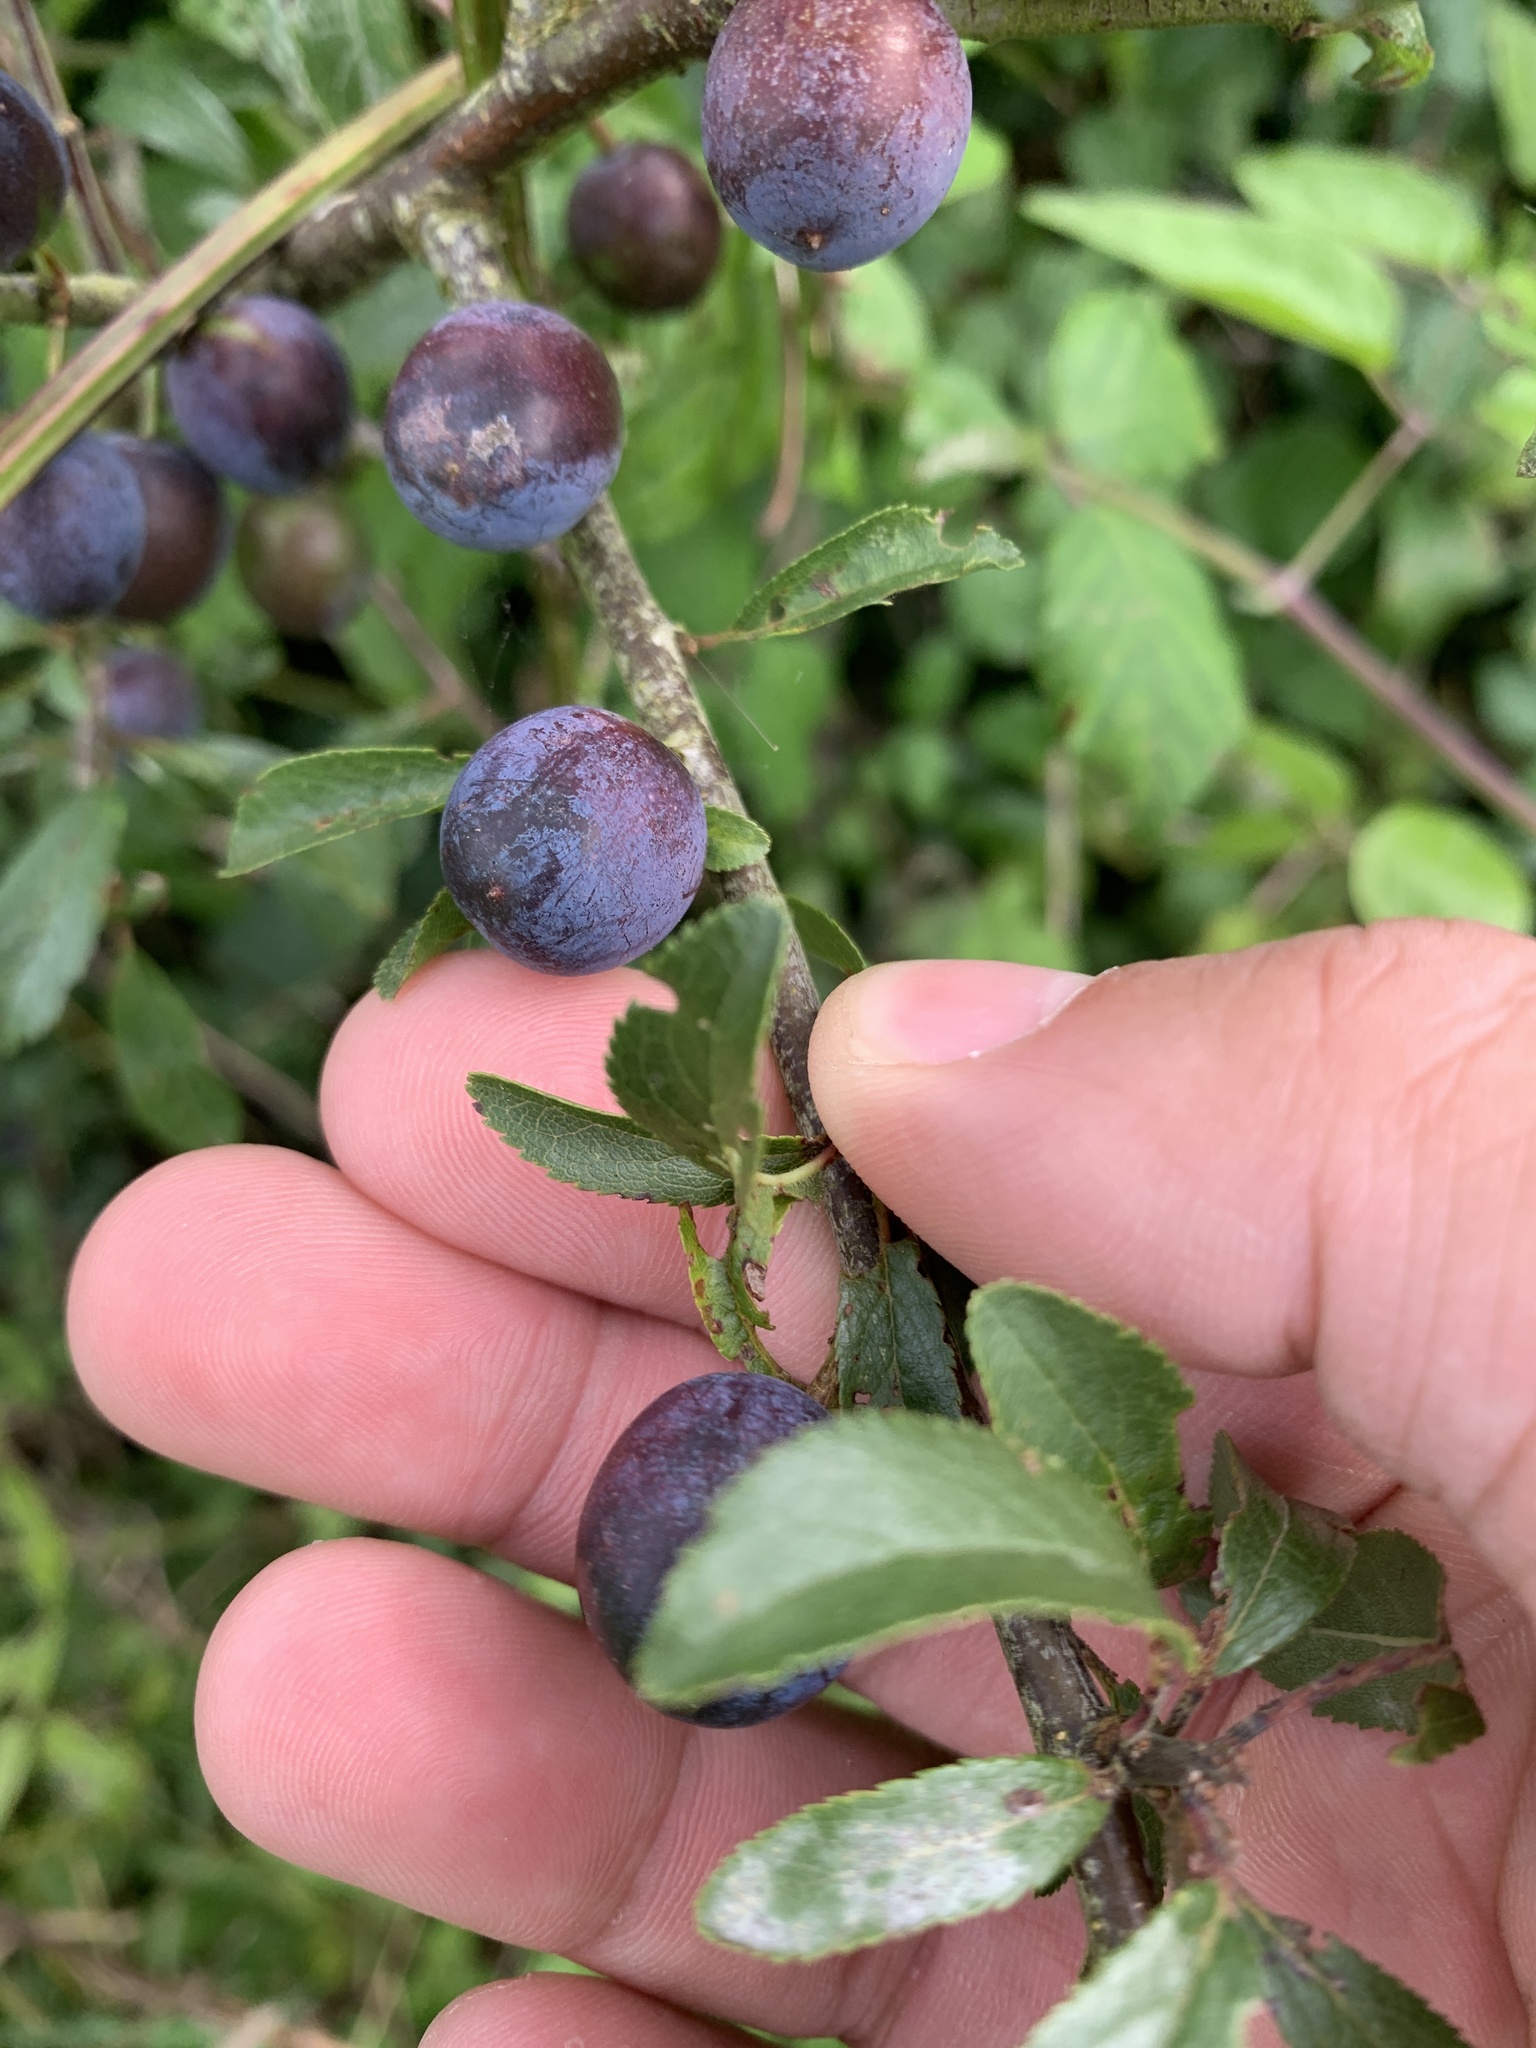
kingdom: Plantae
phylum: Tracheophyta
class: Magnoliopsida
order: Rosales
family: Rosaceae
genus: Prunus
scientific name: Prunus spinosa
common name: Blackthorn
